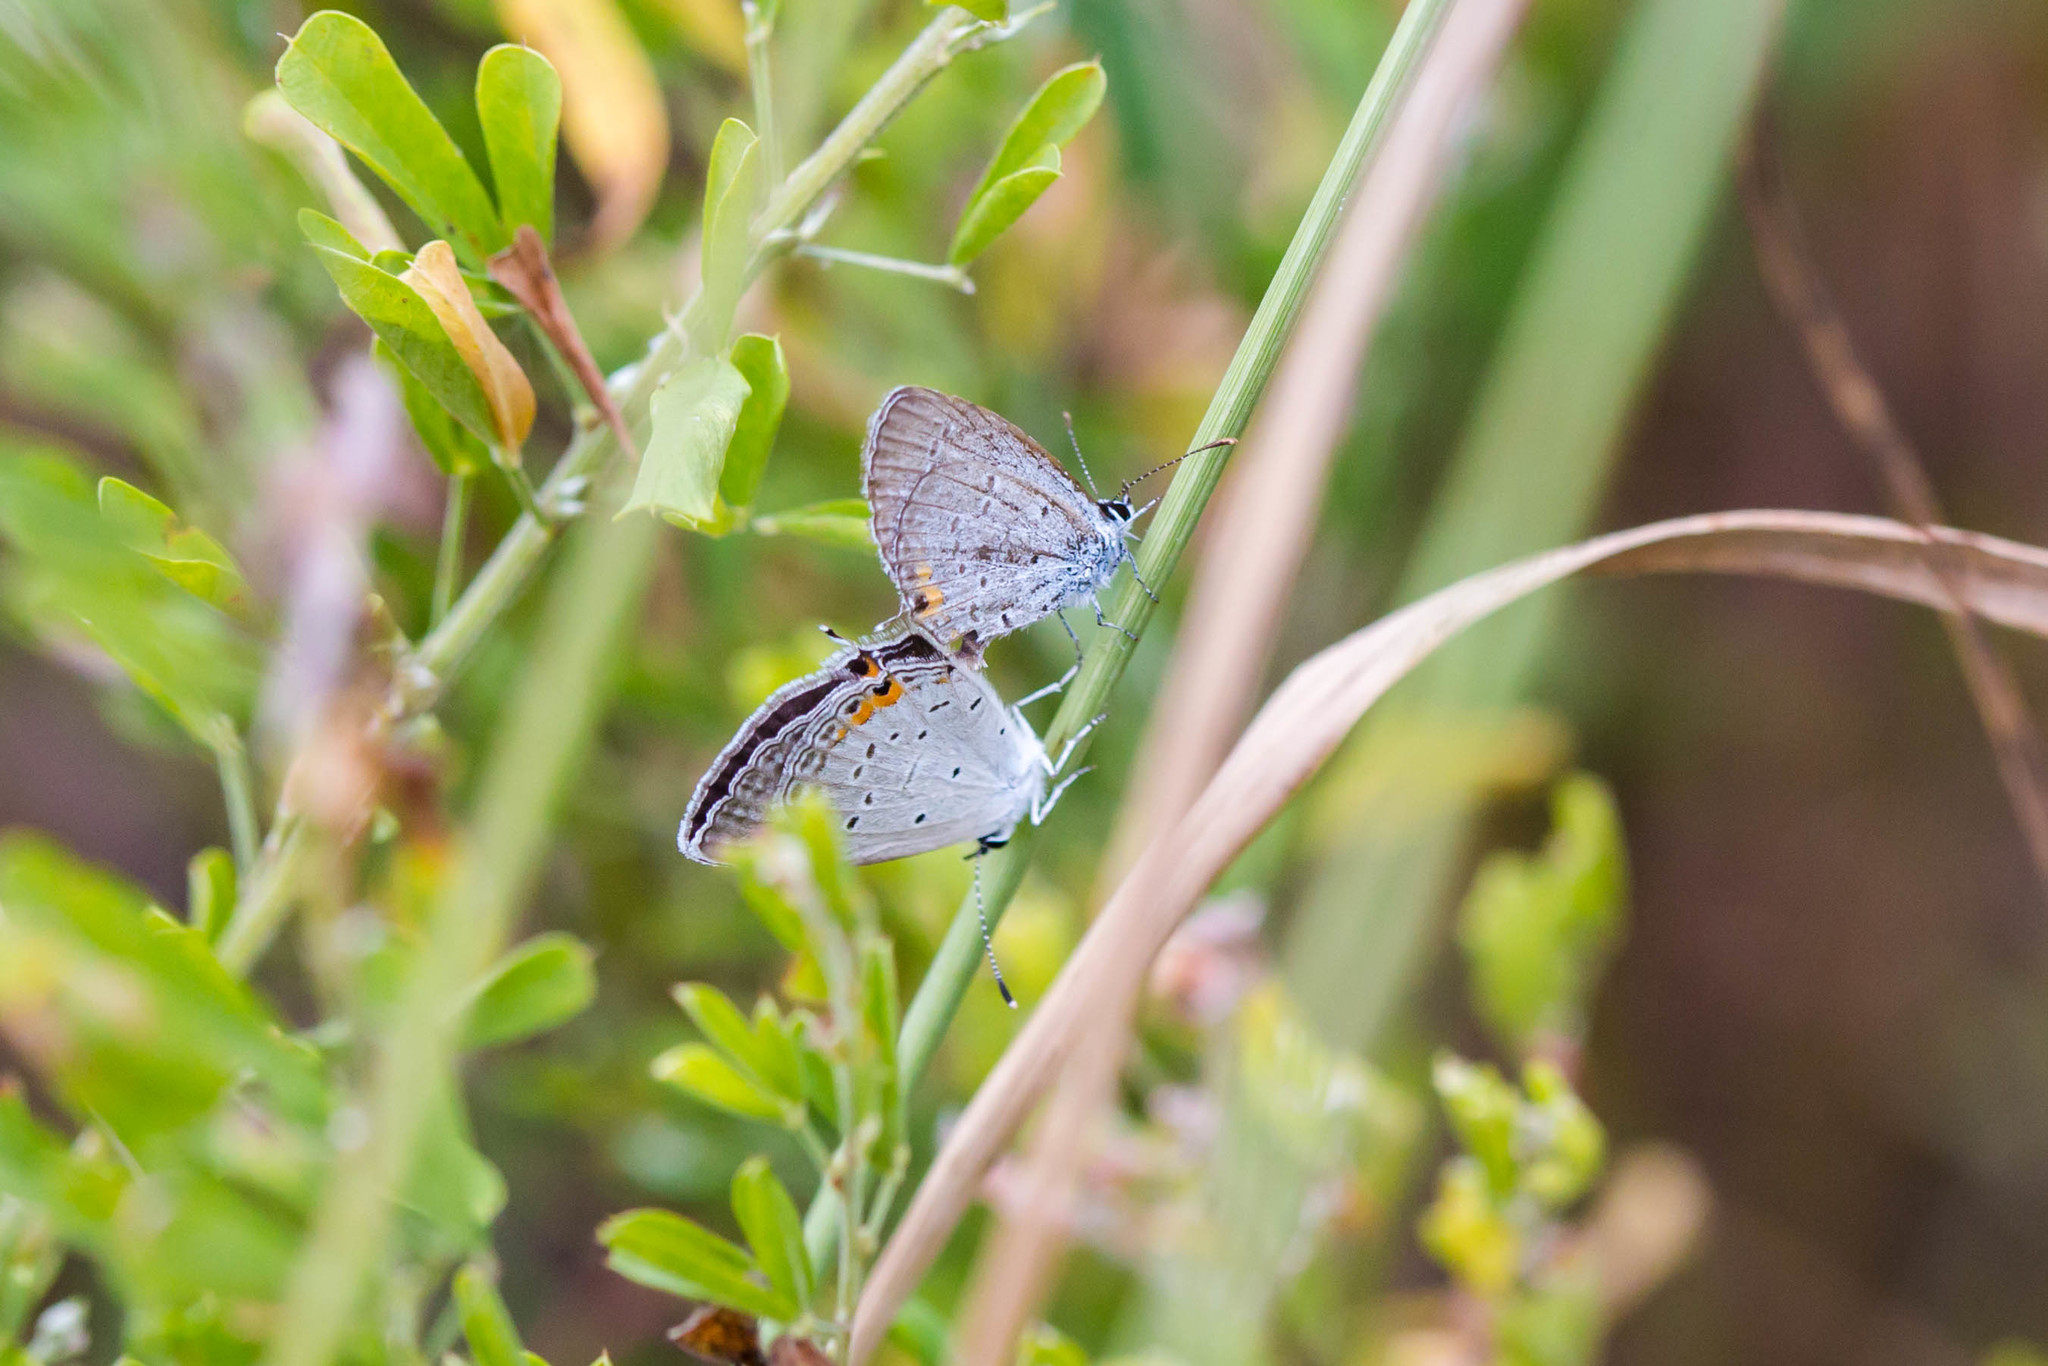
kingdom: Animalia
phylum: Arthropoda
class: Insecta
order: Lepidoptera
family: Lycaenidae
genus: Elkalyce
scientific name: Elkalyce comyntas
